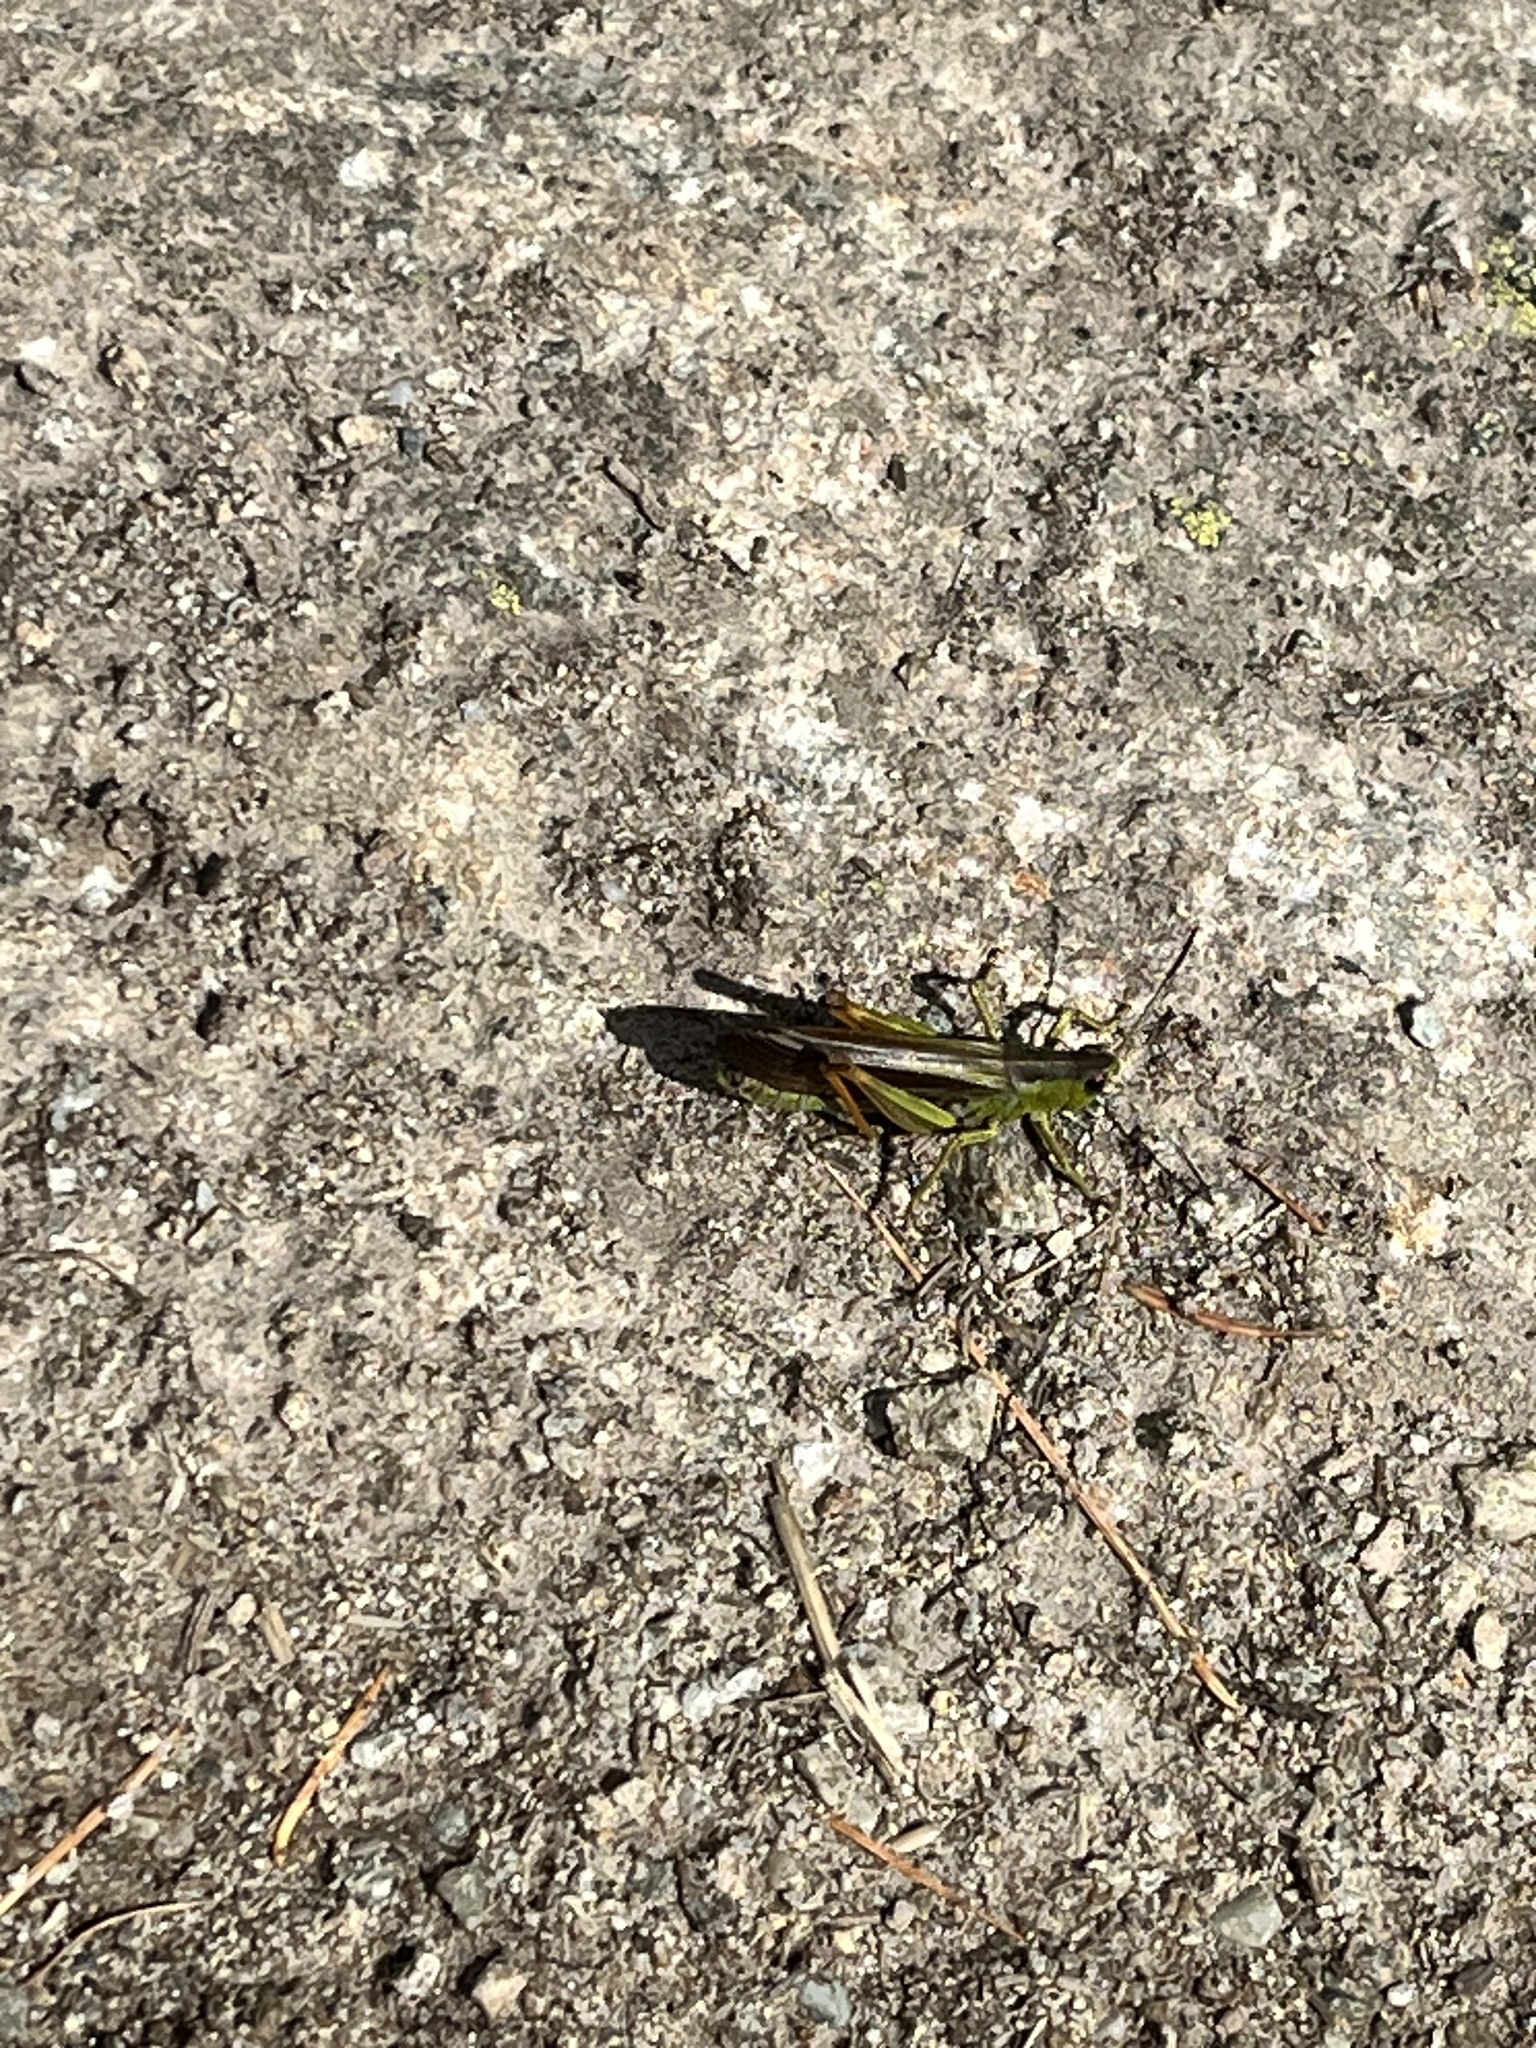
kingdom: Animalia
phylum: Arthropoda
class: Insecta
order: Orthoptera
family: Acrididae
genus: Stauroderus
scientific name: Stauroderus scalaris
